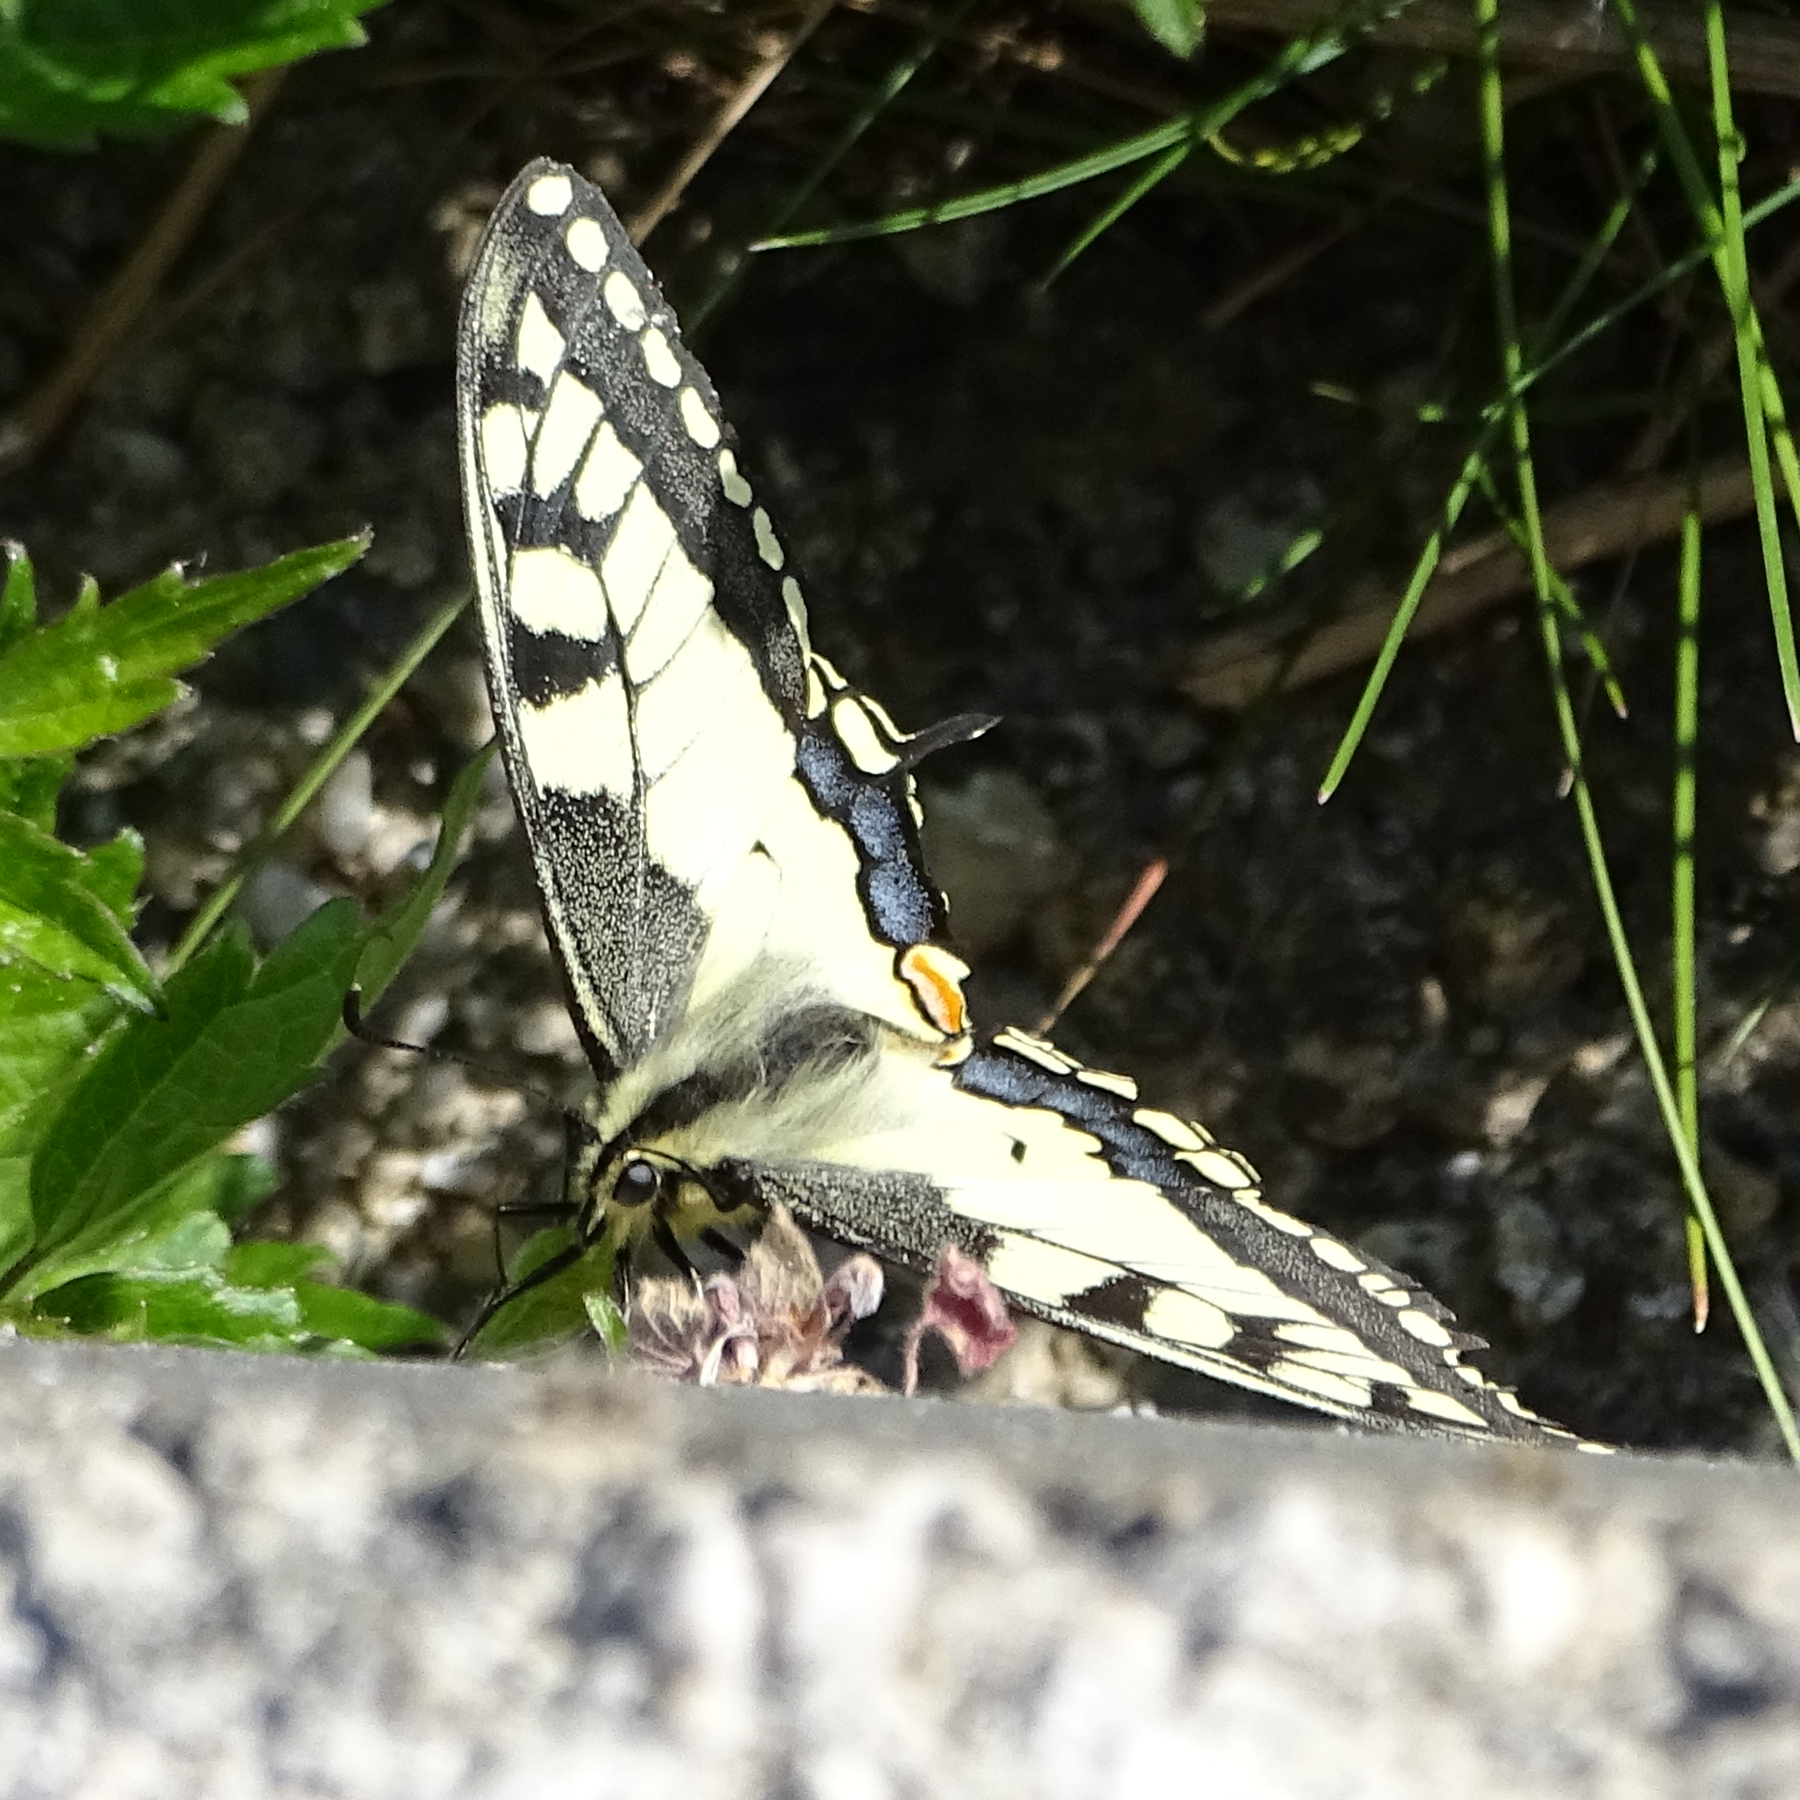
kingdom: Animalia
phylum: Arthropoda
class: Insecta
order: Lepidoptera
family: Papilionidae
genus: Papilio
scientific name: Papilio machaon
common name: Swallowtail
